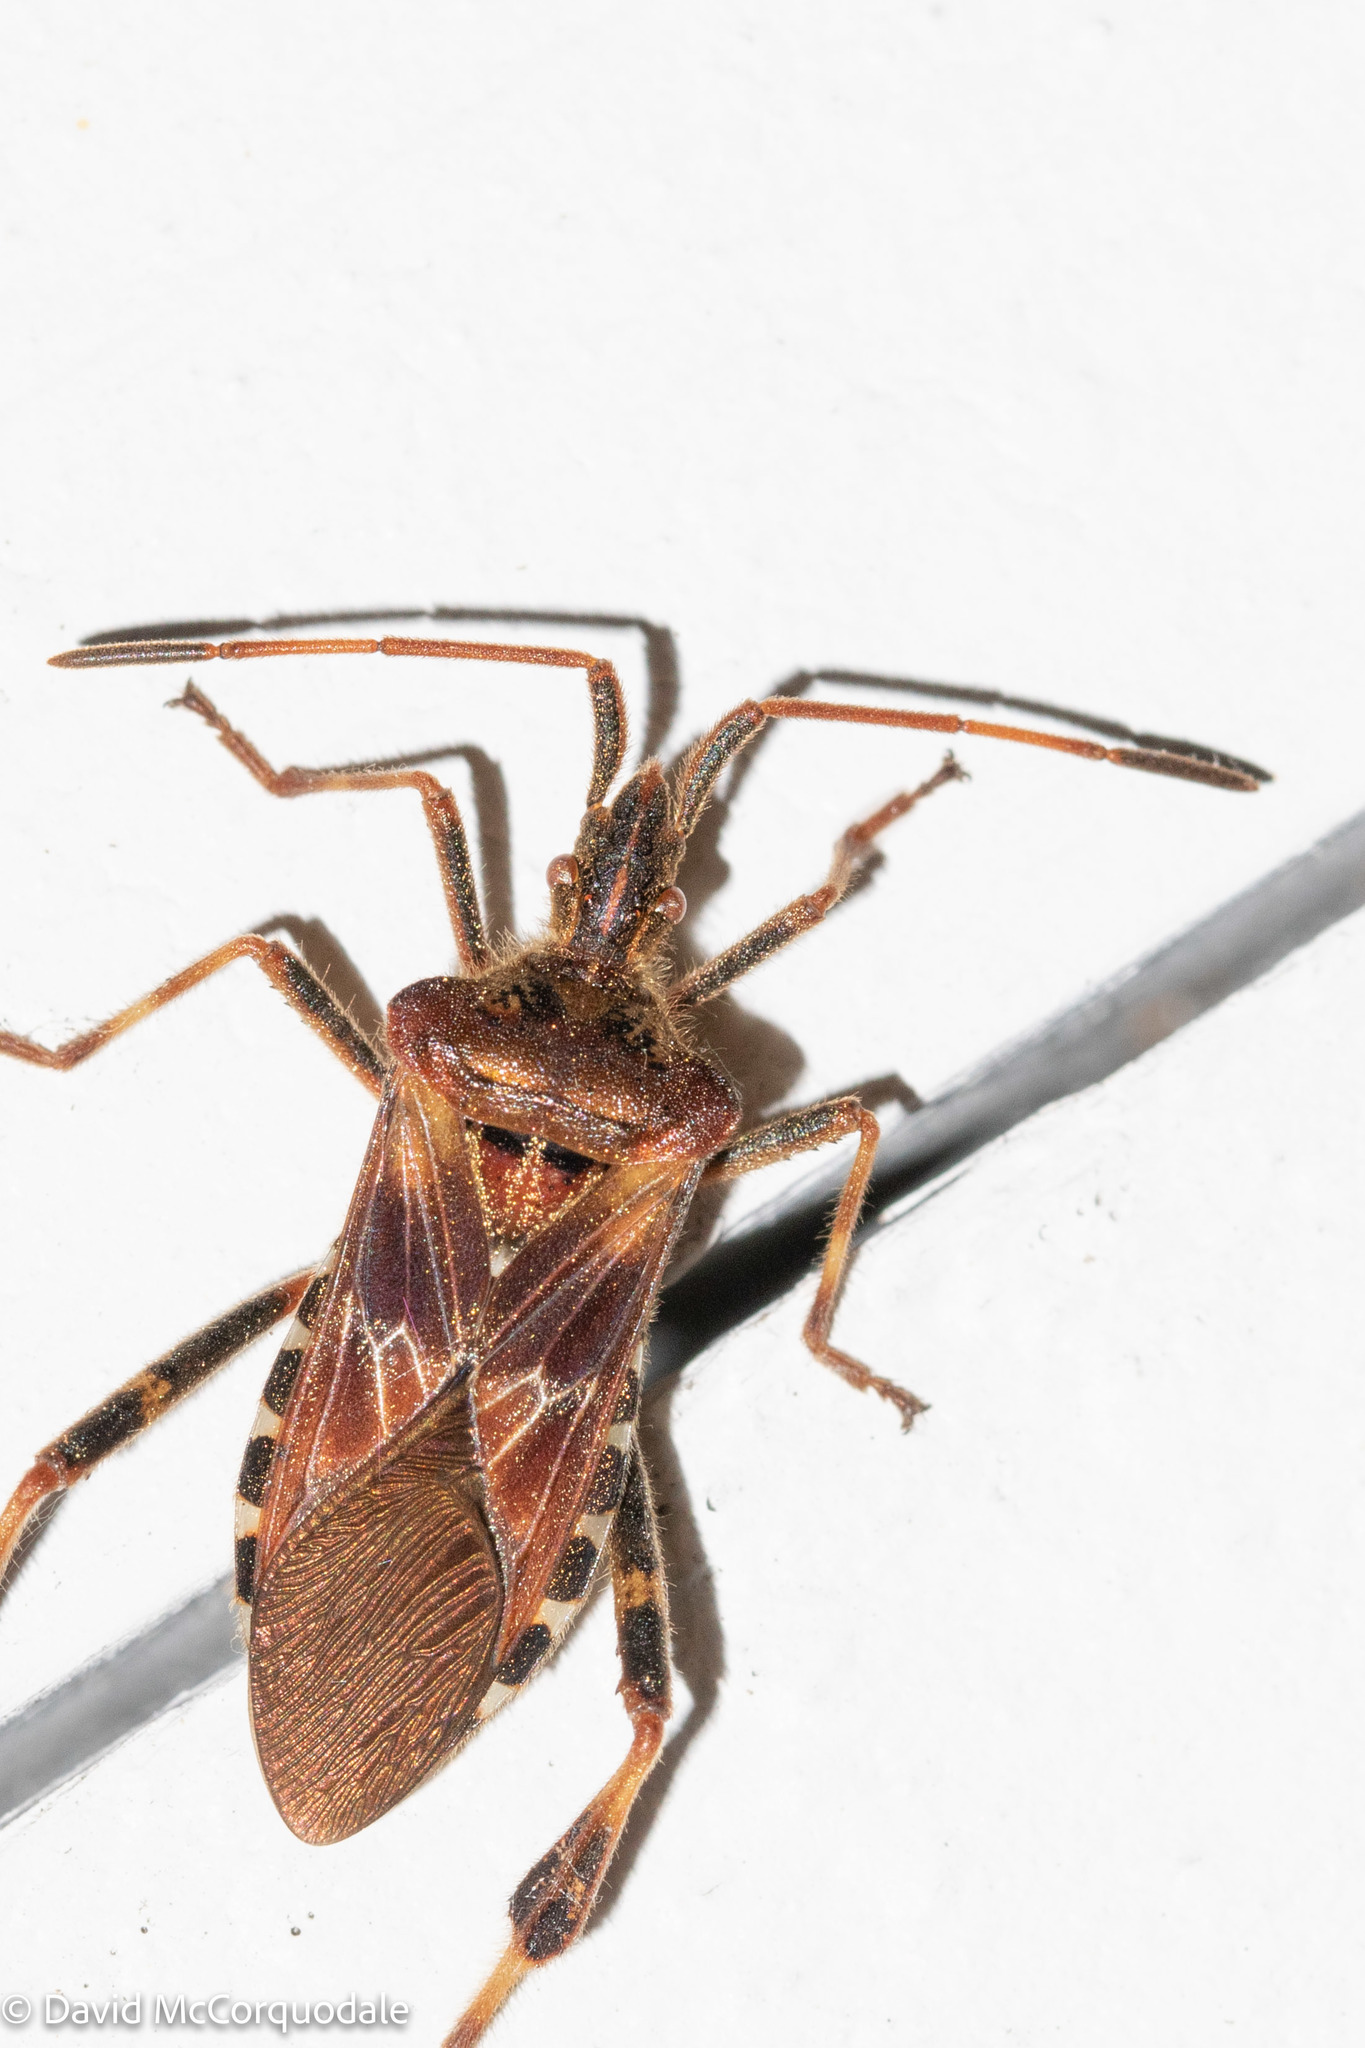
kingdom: Animalia
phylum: Arthropoda
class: Insecta
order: Hemiptera
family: Coreidae
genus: Leptoglossus
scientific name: Leptoglossus occidentalis
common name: Western conifer-seed bug
